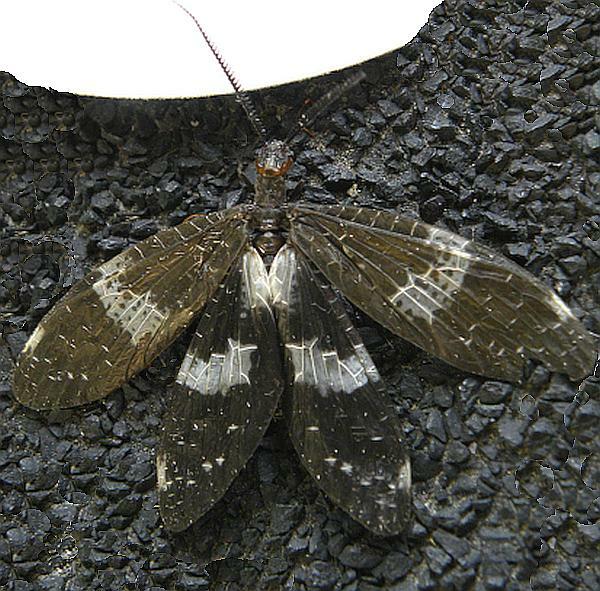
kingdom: Animalia
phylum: Arthropoda
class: Insecta
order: Megaloptera
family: Corydalidae
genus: Nigronia
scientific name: Nigronia fasciata
